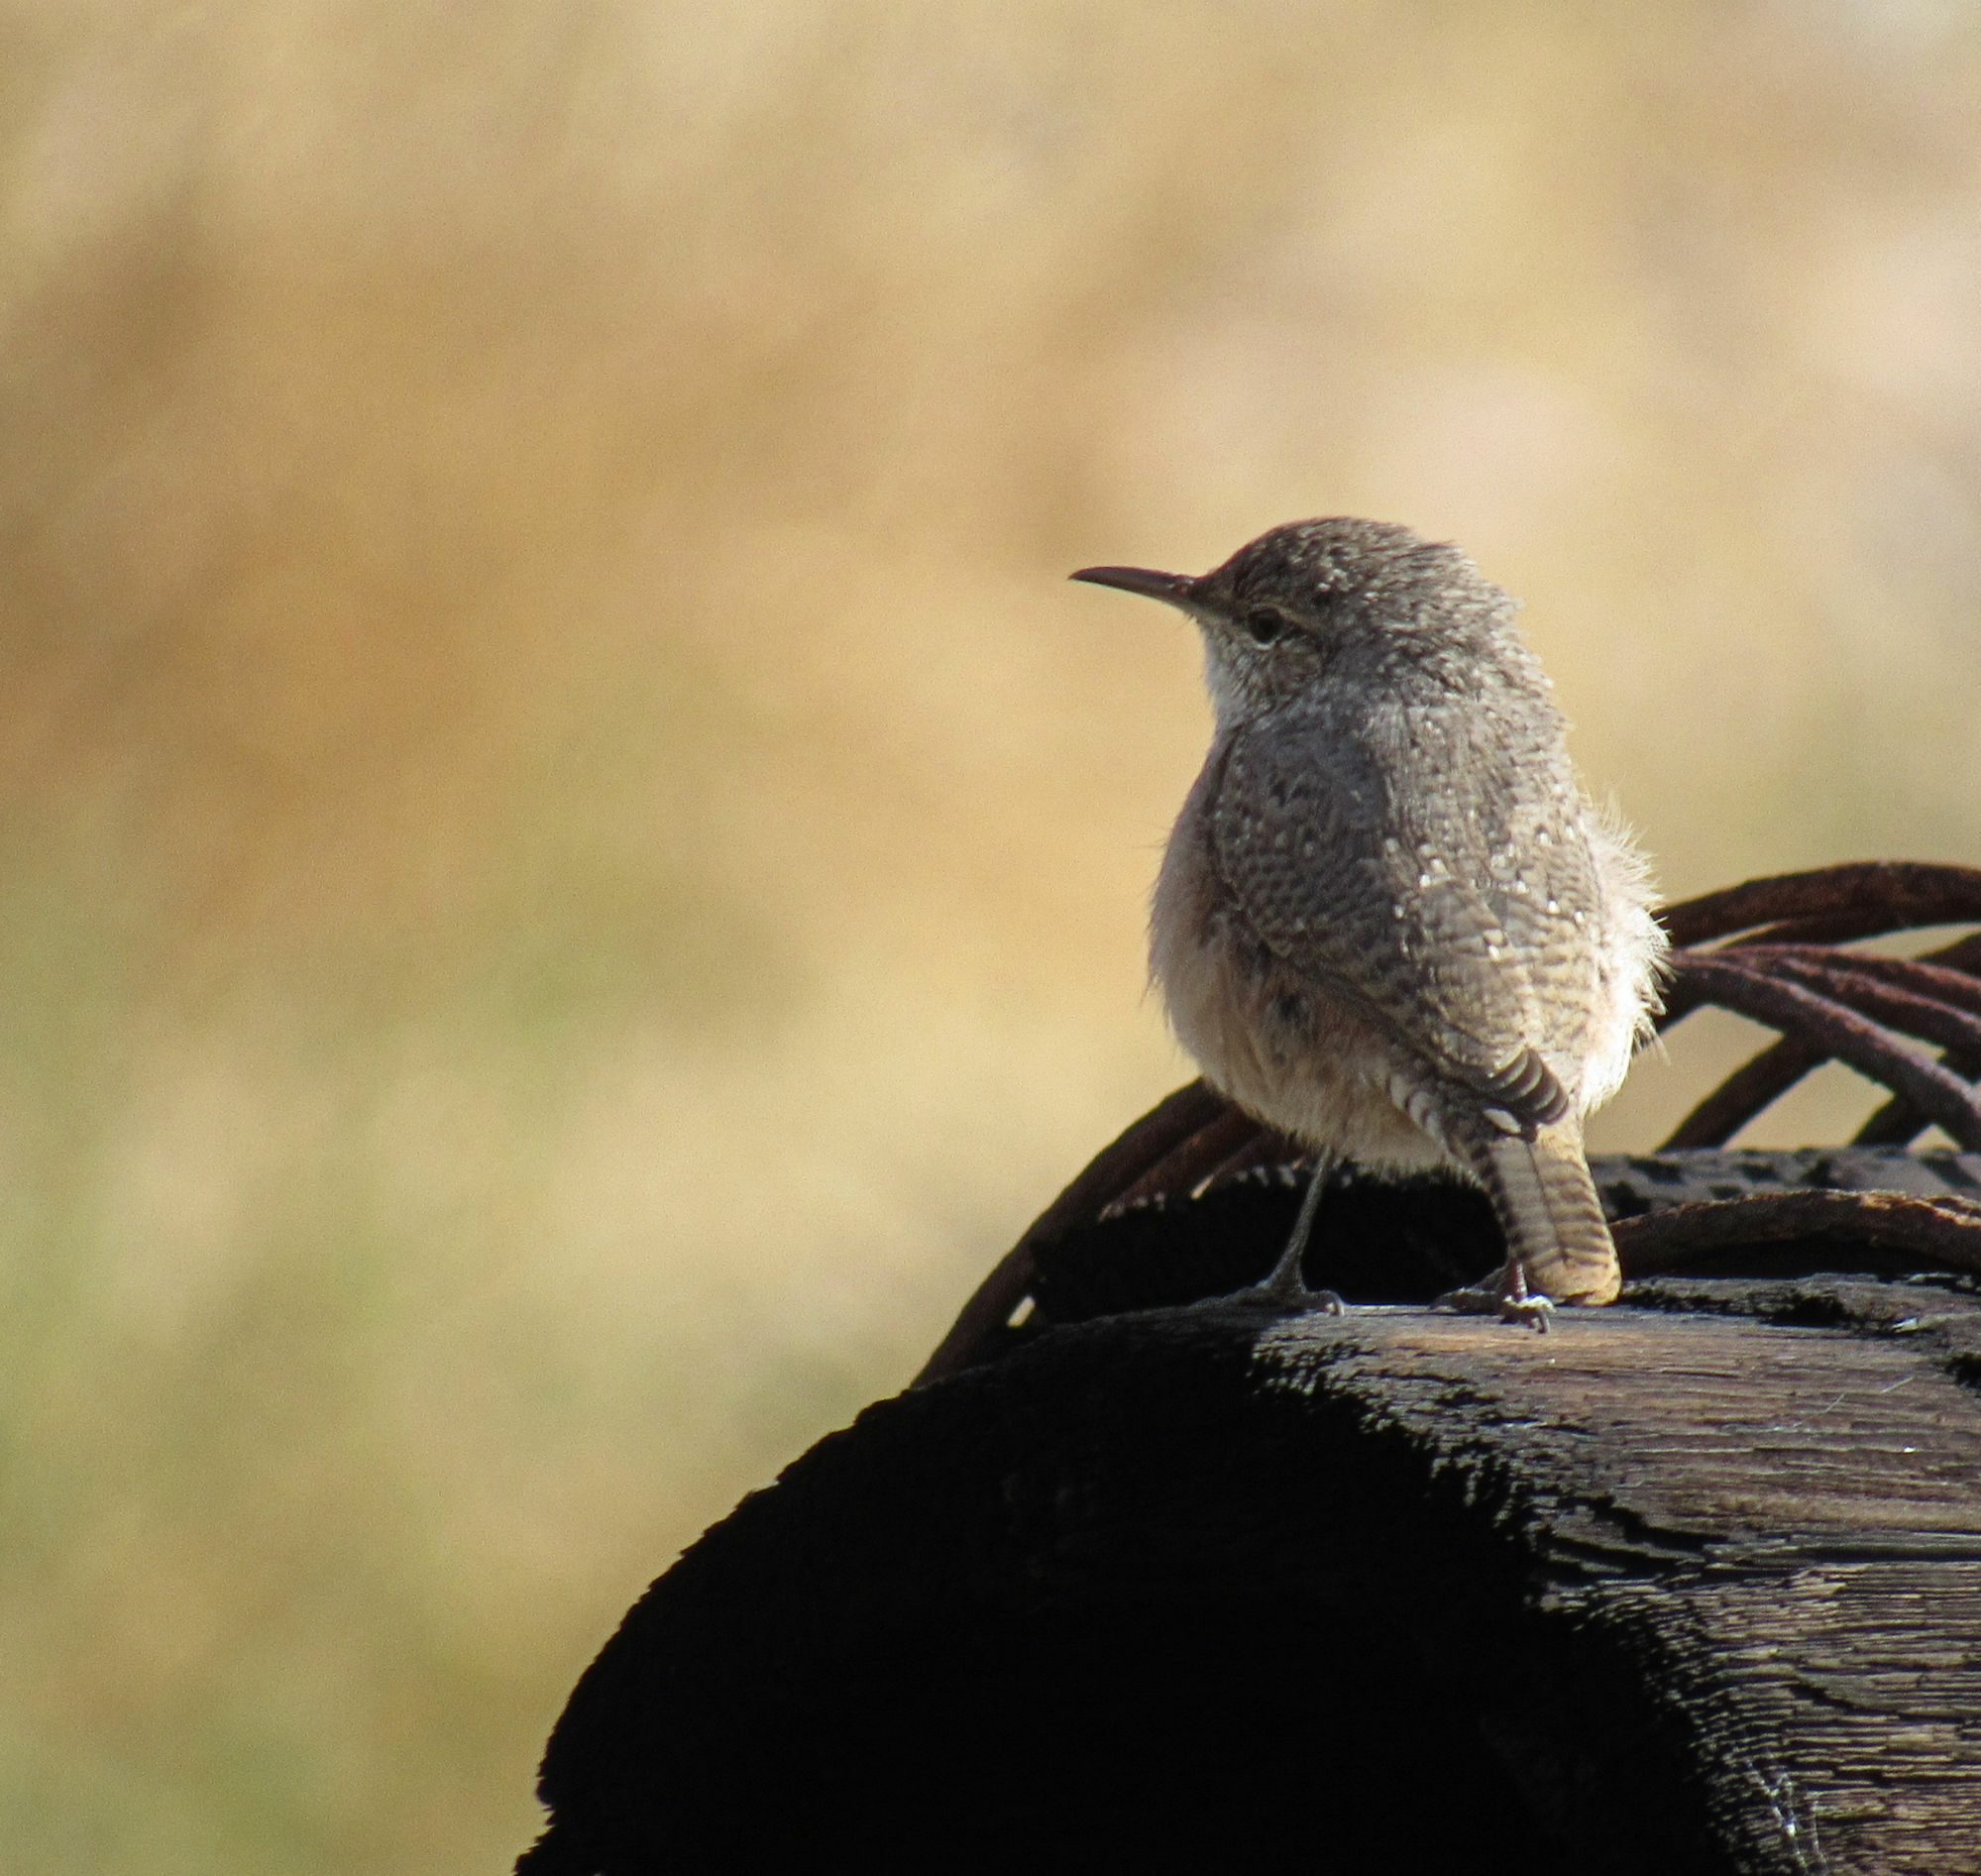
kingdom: Animalia
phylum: Chordata
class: Aves
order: Passeriformes
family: Troglodytidae
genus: Salpinctes
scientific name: Salpinctes obsoletus
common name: Rock wren
